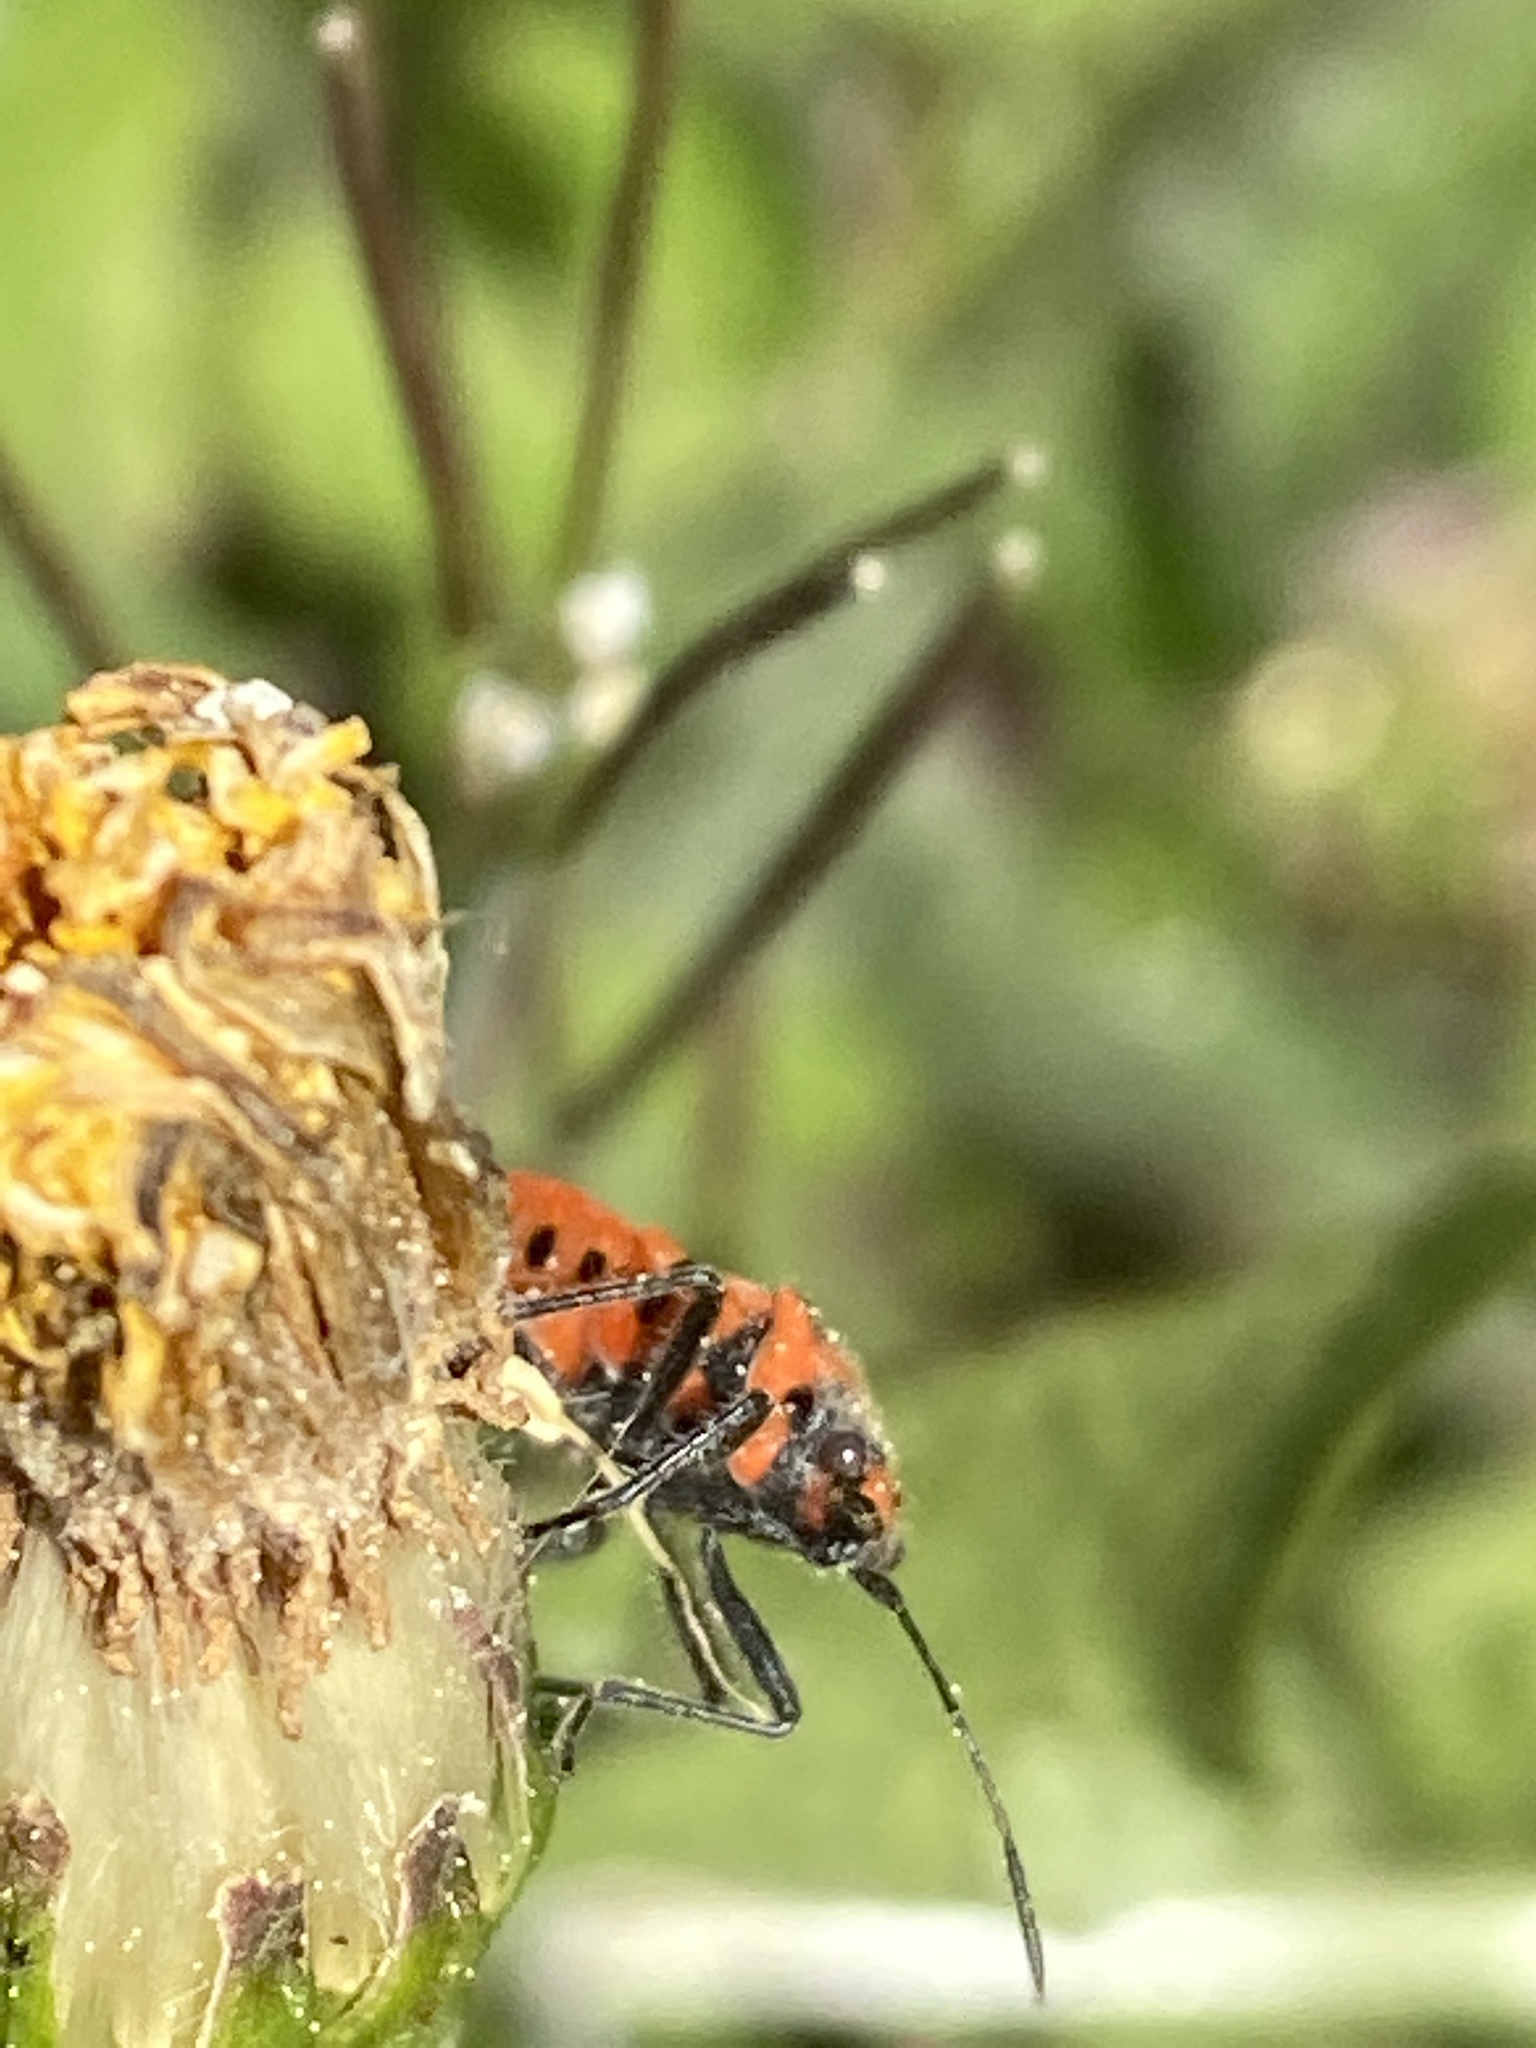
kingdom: Animalia
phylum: Arthropoda
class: Insecta
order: Hemiptera
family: Rhopalidae
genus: Corizus
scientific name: Corizus hyoscyami
